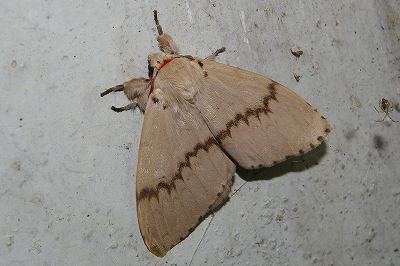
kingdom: Animalia
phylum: Arthropoda
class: Insecta
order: Lepidoptera
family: Erebidae
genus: Lymantria
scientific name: Lymantria xylina
